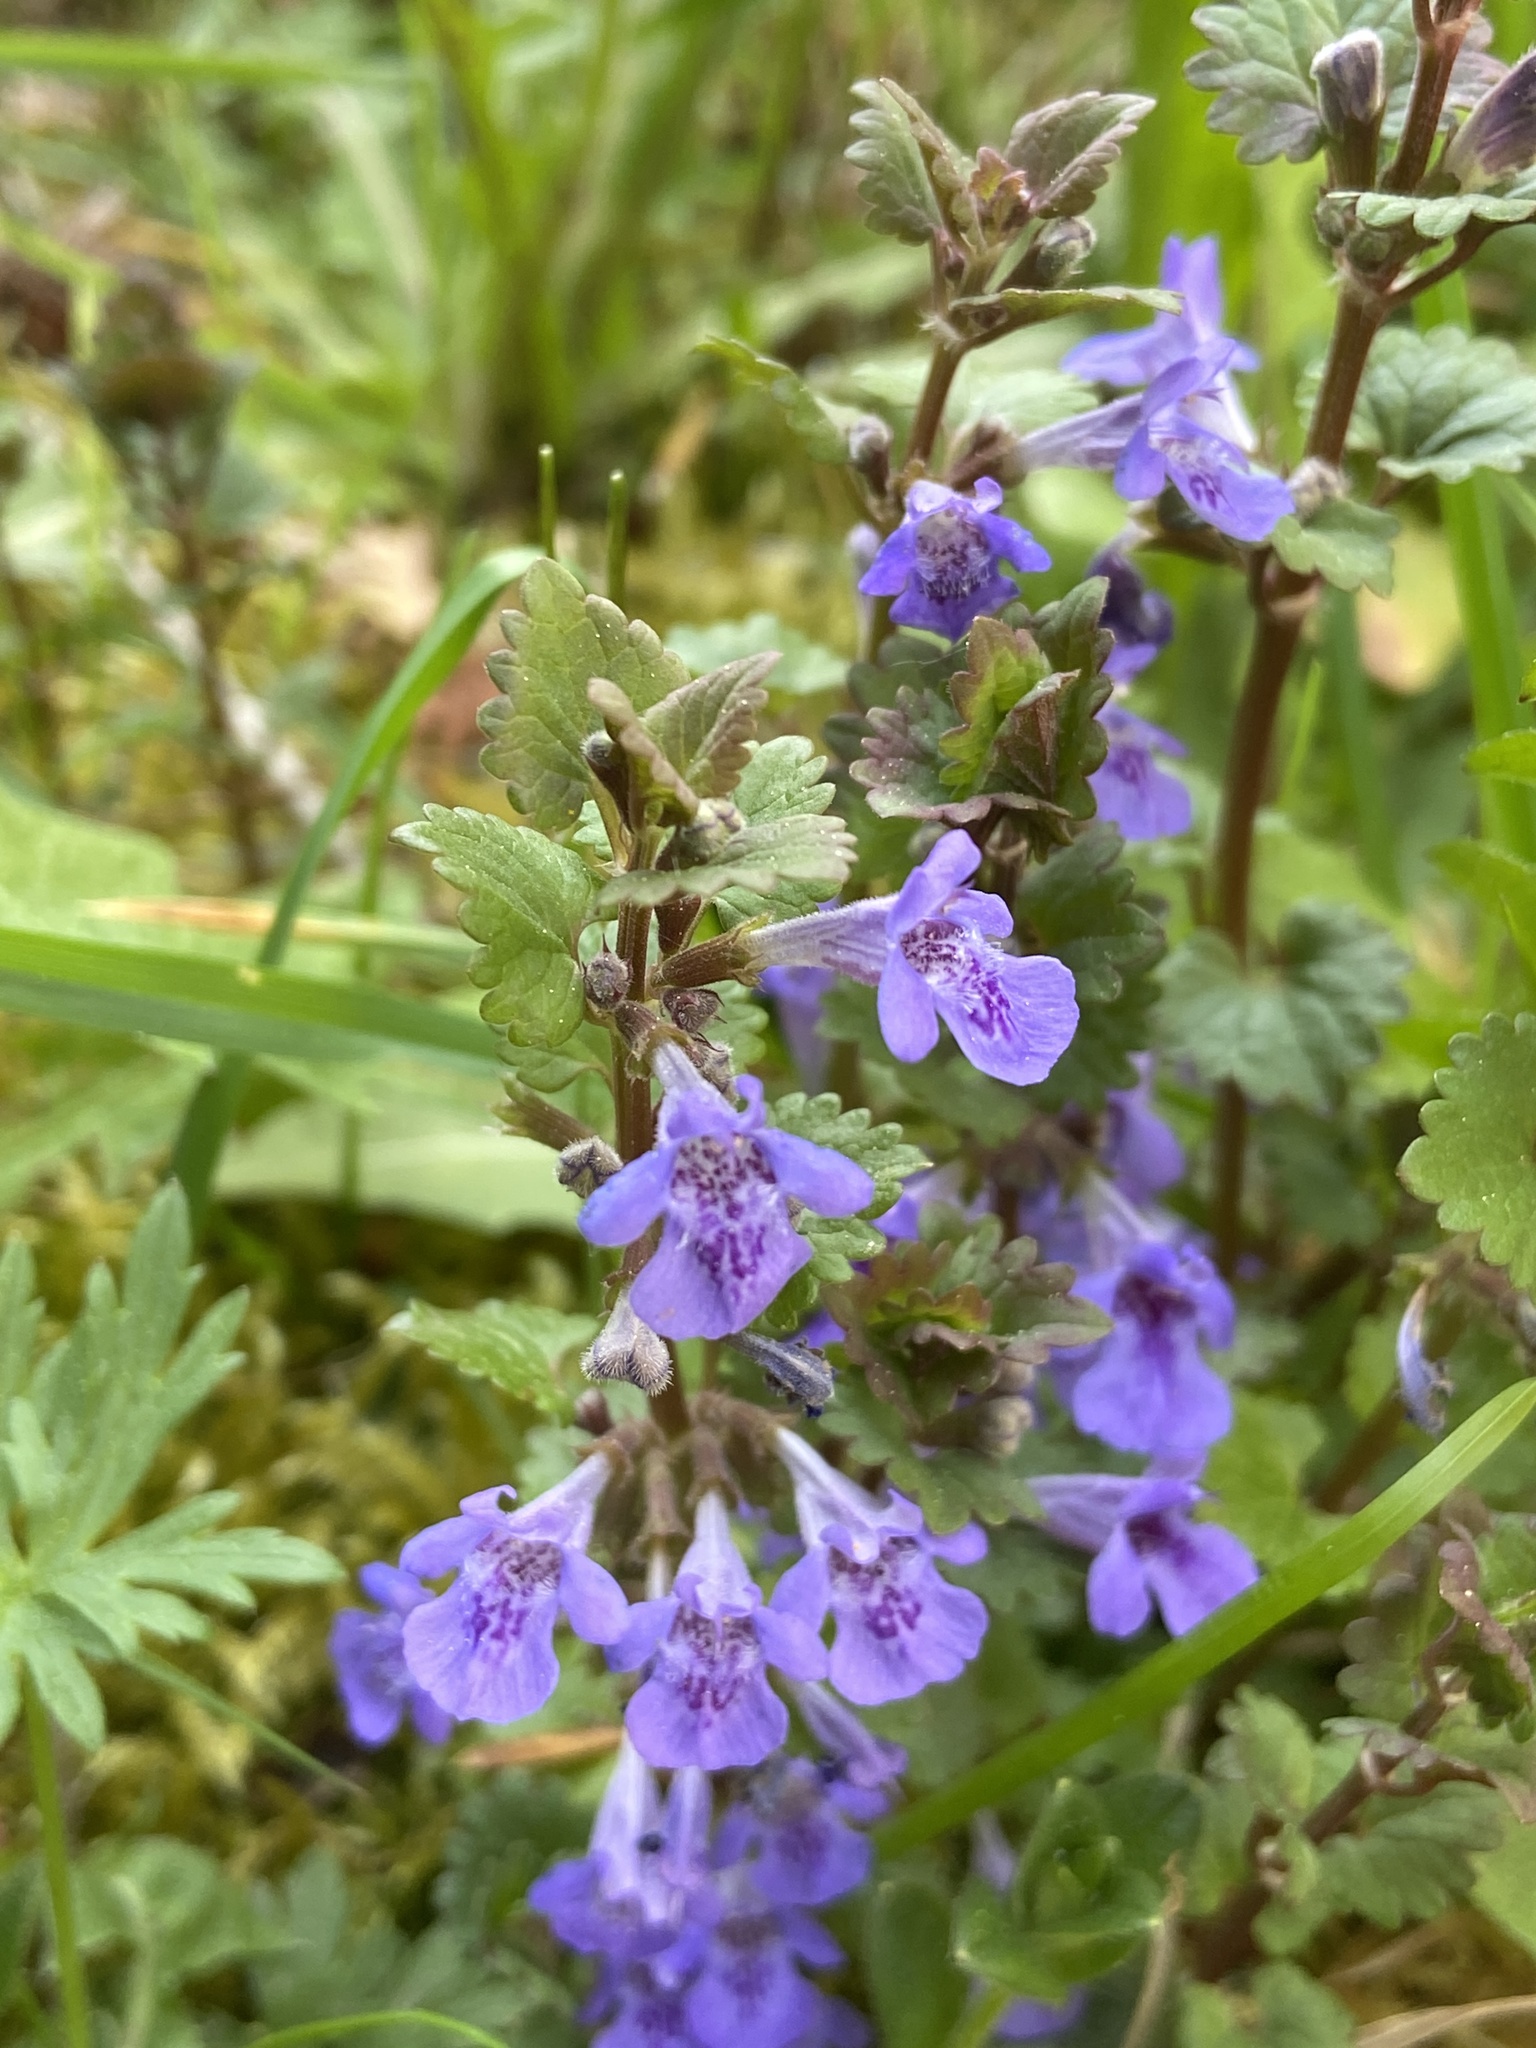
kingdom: Plantae
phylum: Tracheophyta
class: Magnoliopsida
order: Lamiales
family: Lamiaceae
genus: Glechoma
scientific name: Glechoma hederacea
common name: Ground ivy
